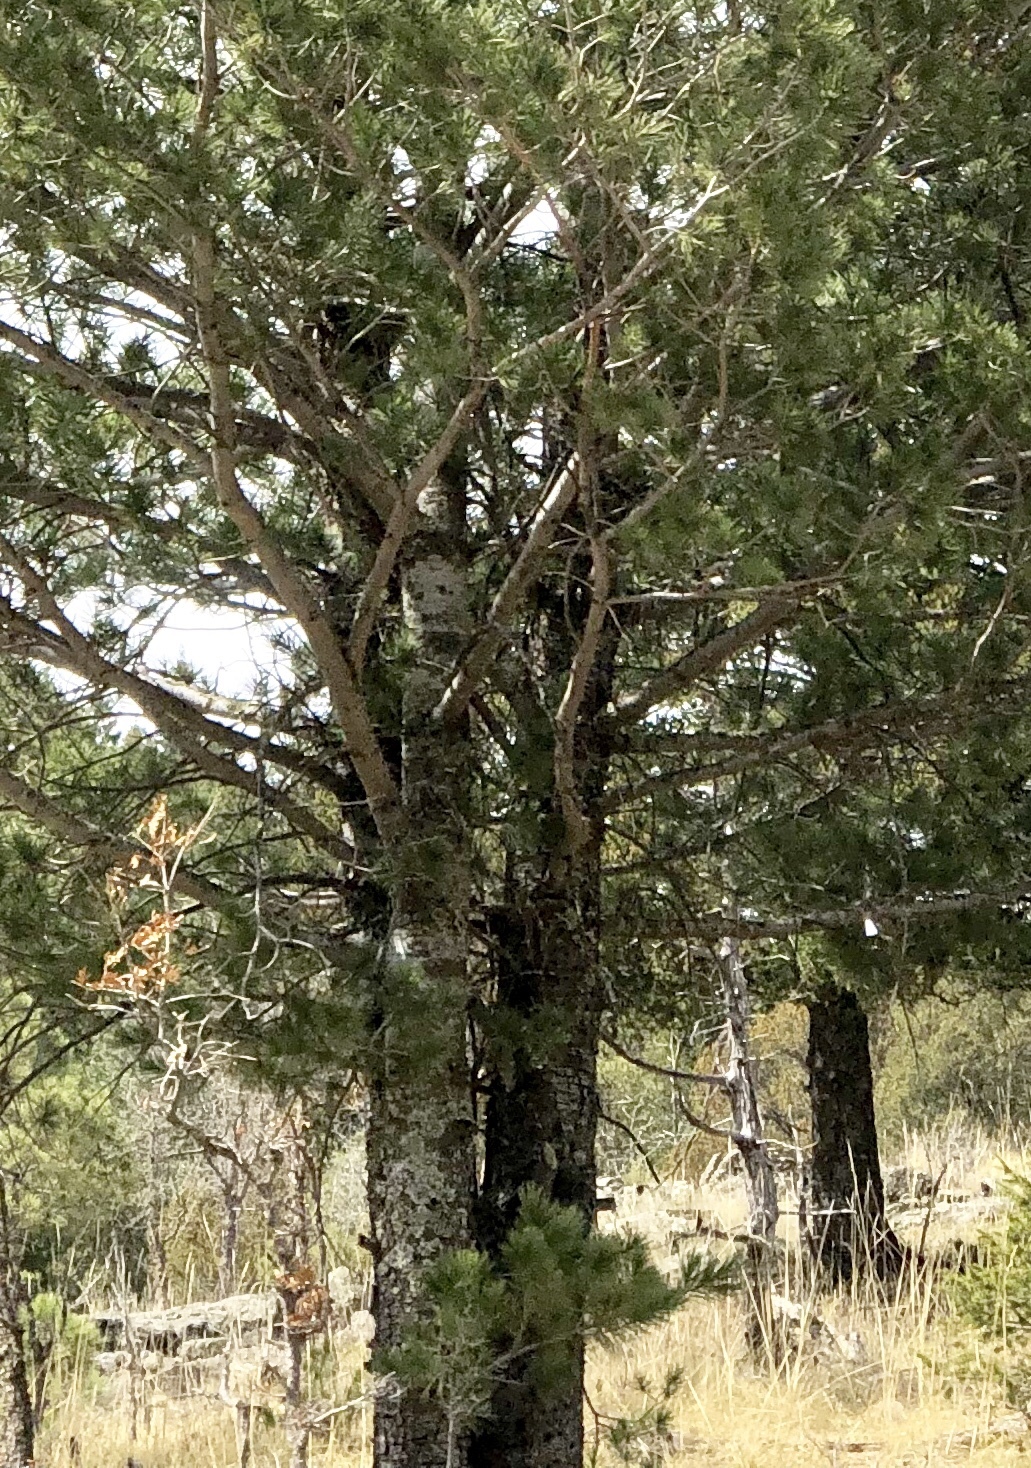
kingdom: Plantae
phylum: Tracheophyta
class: Pinopsida
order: Pinales
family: Pinaceae
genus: Pinus
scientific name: Pinus strobiformis
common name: Southwestern white pine
